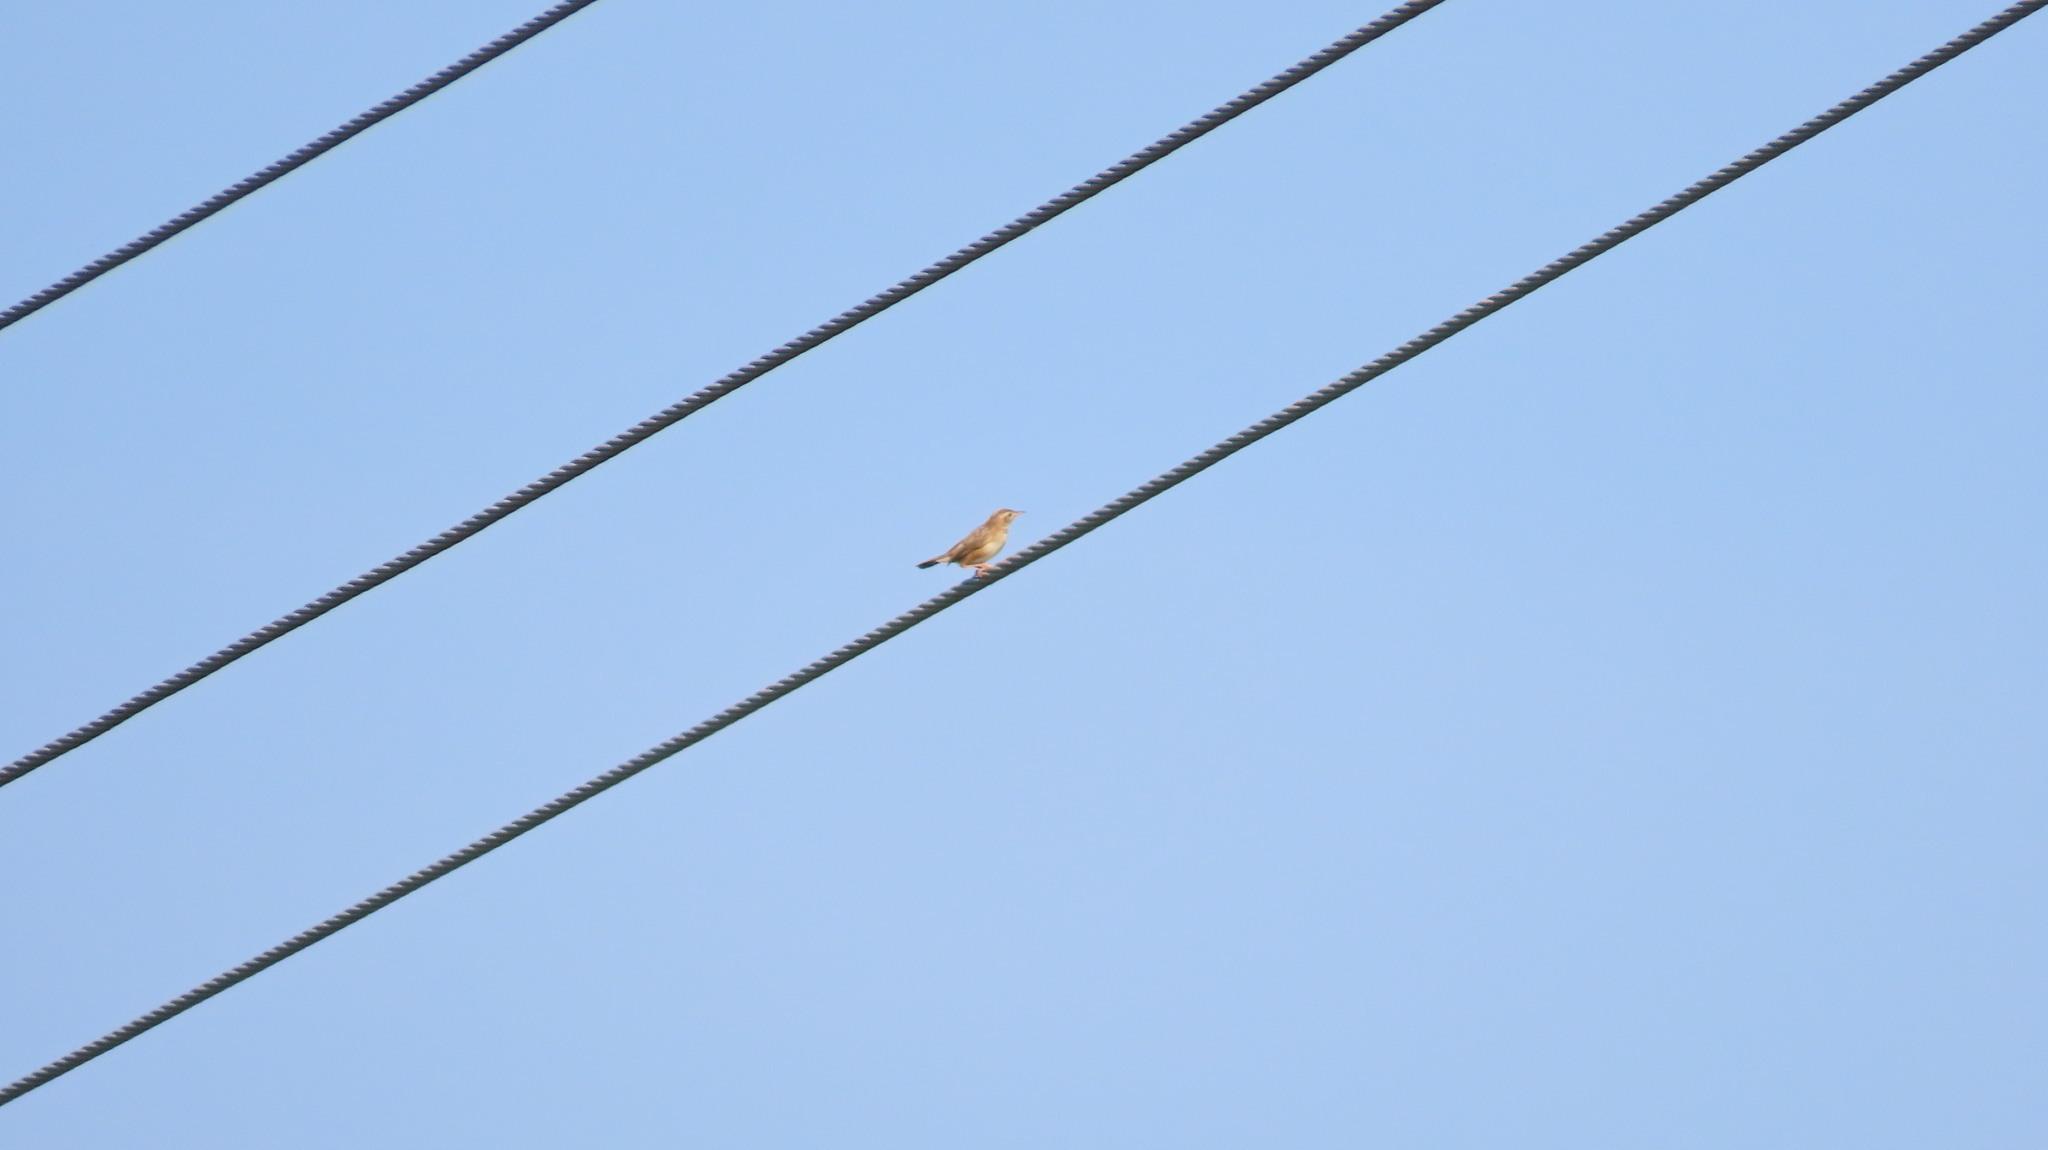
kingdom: Animalia
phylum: Chordata
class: Aves
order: Passeriformes
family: Cisticolidae
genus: Cisticola
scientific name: Cisticola juncidis
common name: Zitting cisticola
